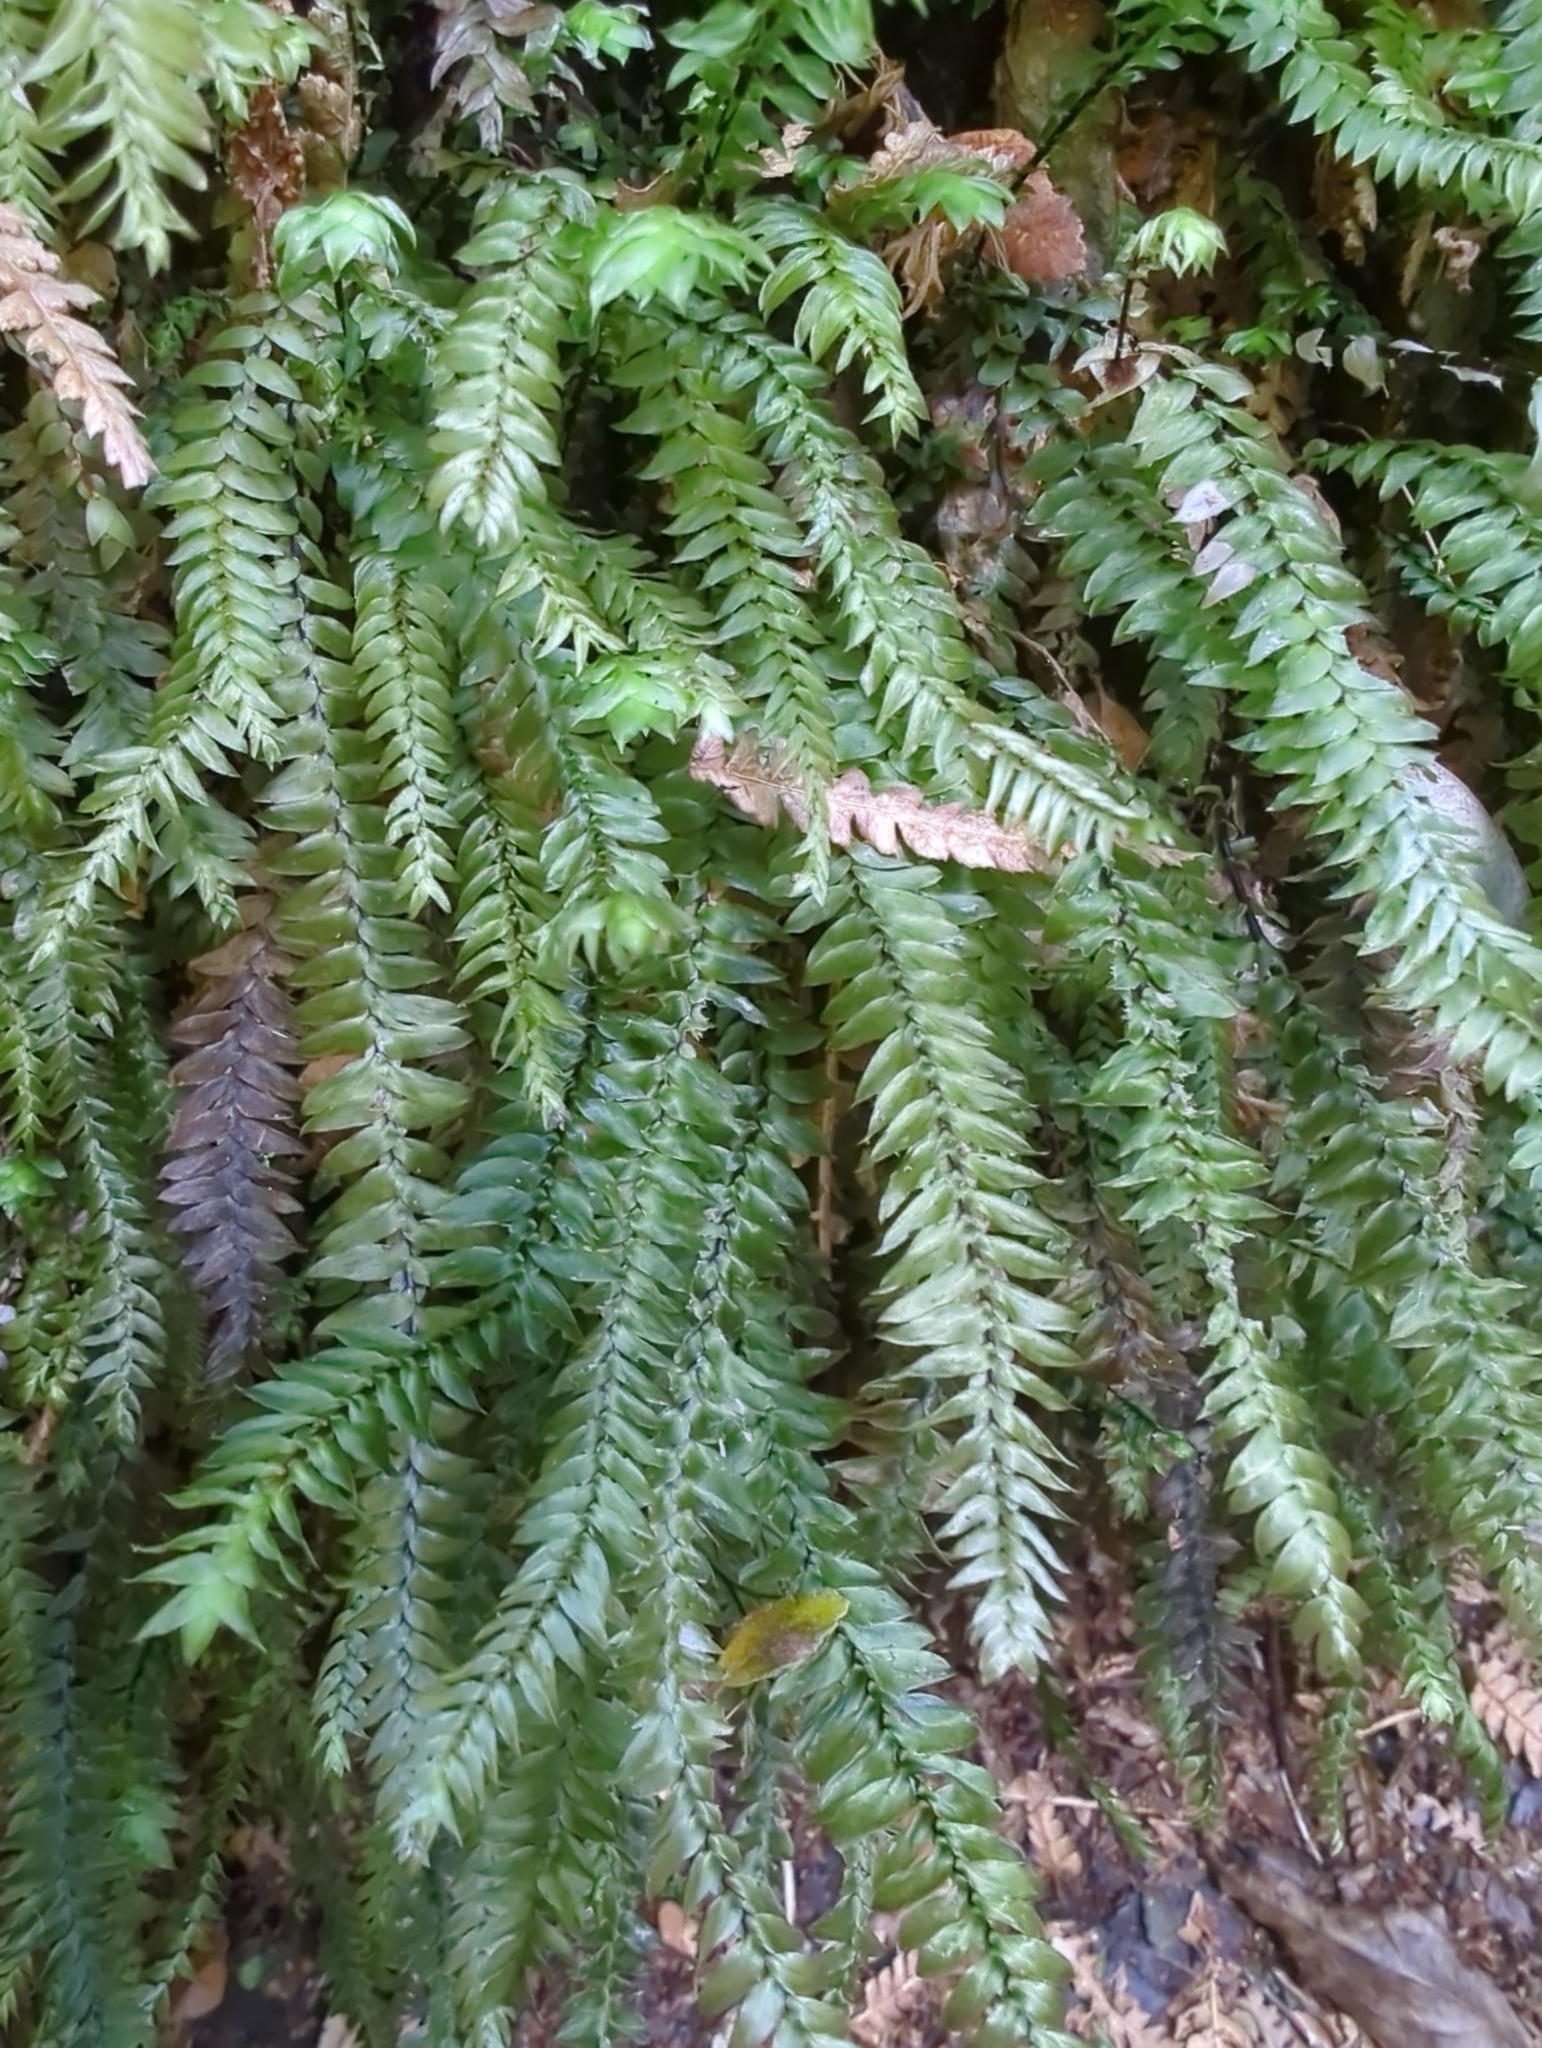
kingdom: Plantae
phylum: Bryophyta
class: Bryopsida
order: Hypopterygiales
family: Hypopterygiaceae
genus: Cyathophorum
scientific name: Cyathophorum bulbosum
